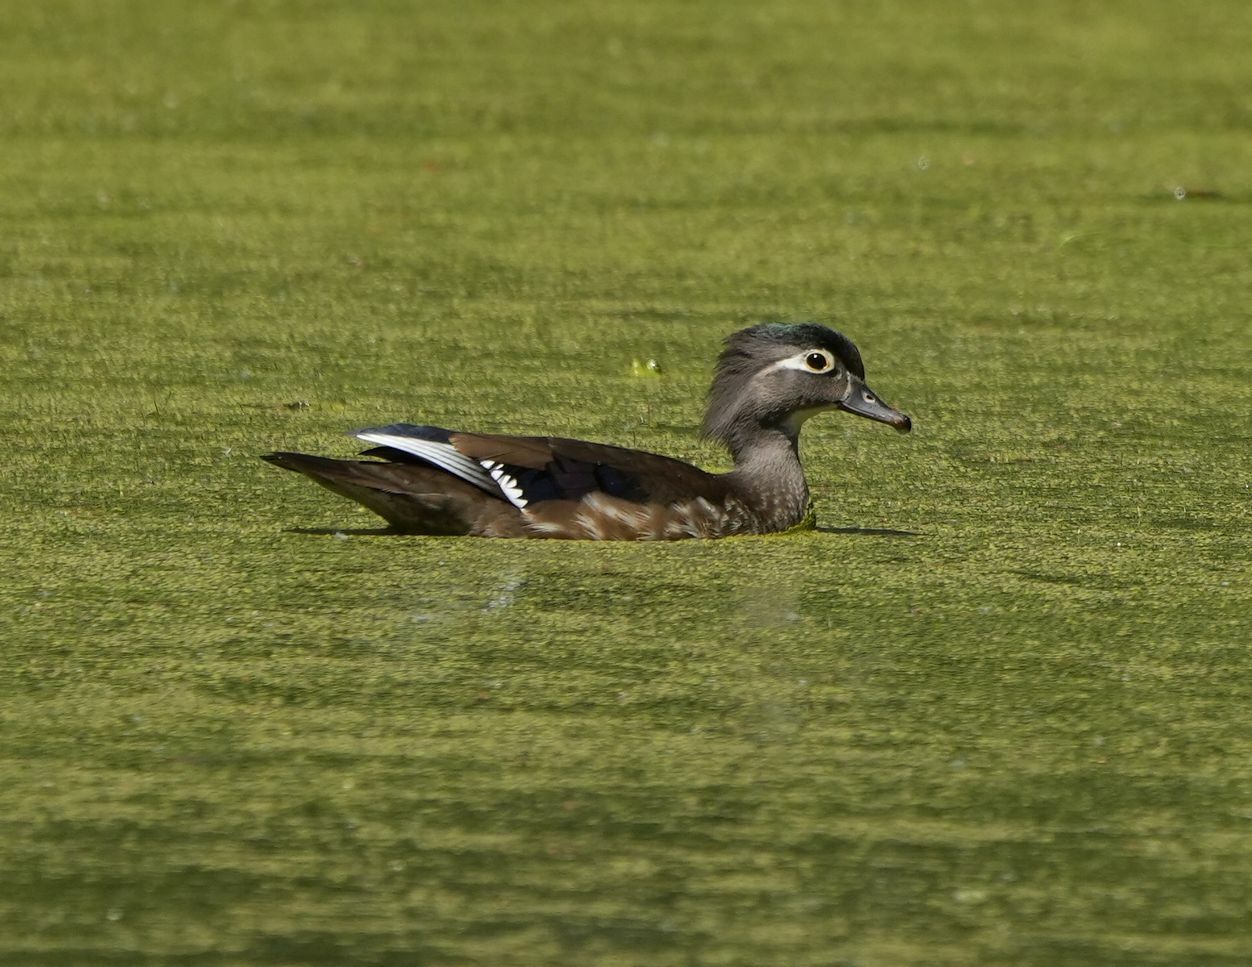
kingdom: Animalia
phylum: Chordata
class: Aves
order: Anseriformes
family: Anatidae
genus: Aix
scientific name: Aix sponsa
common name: Wood duck
